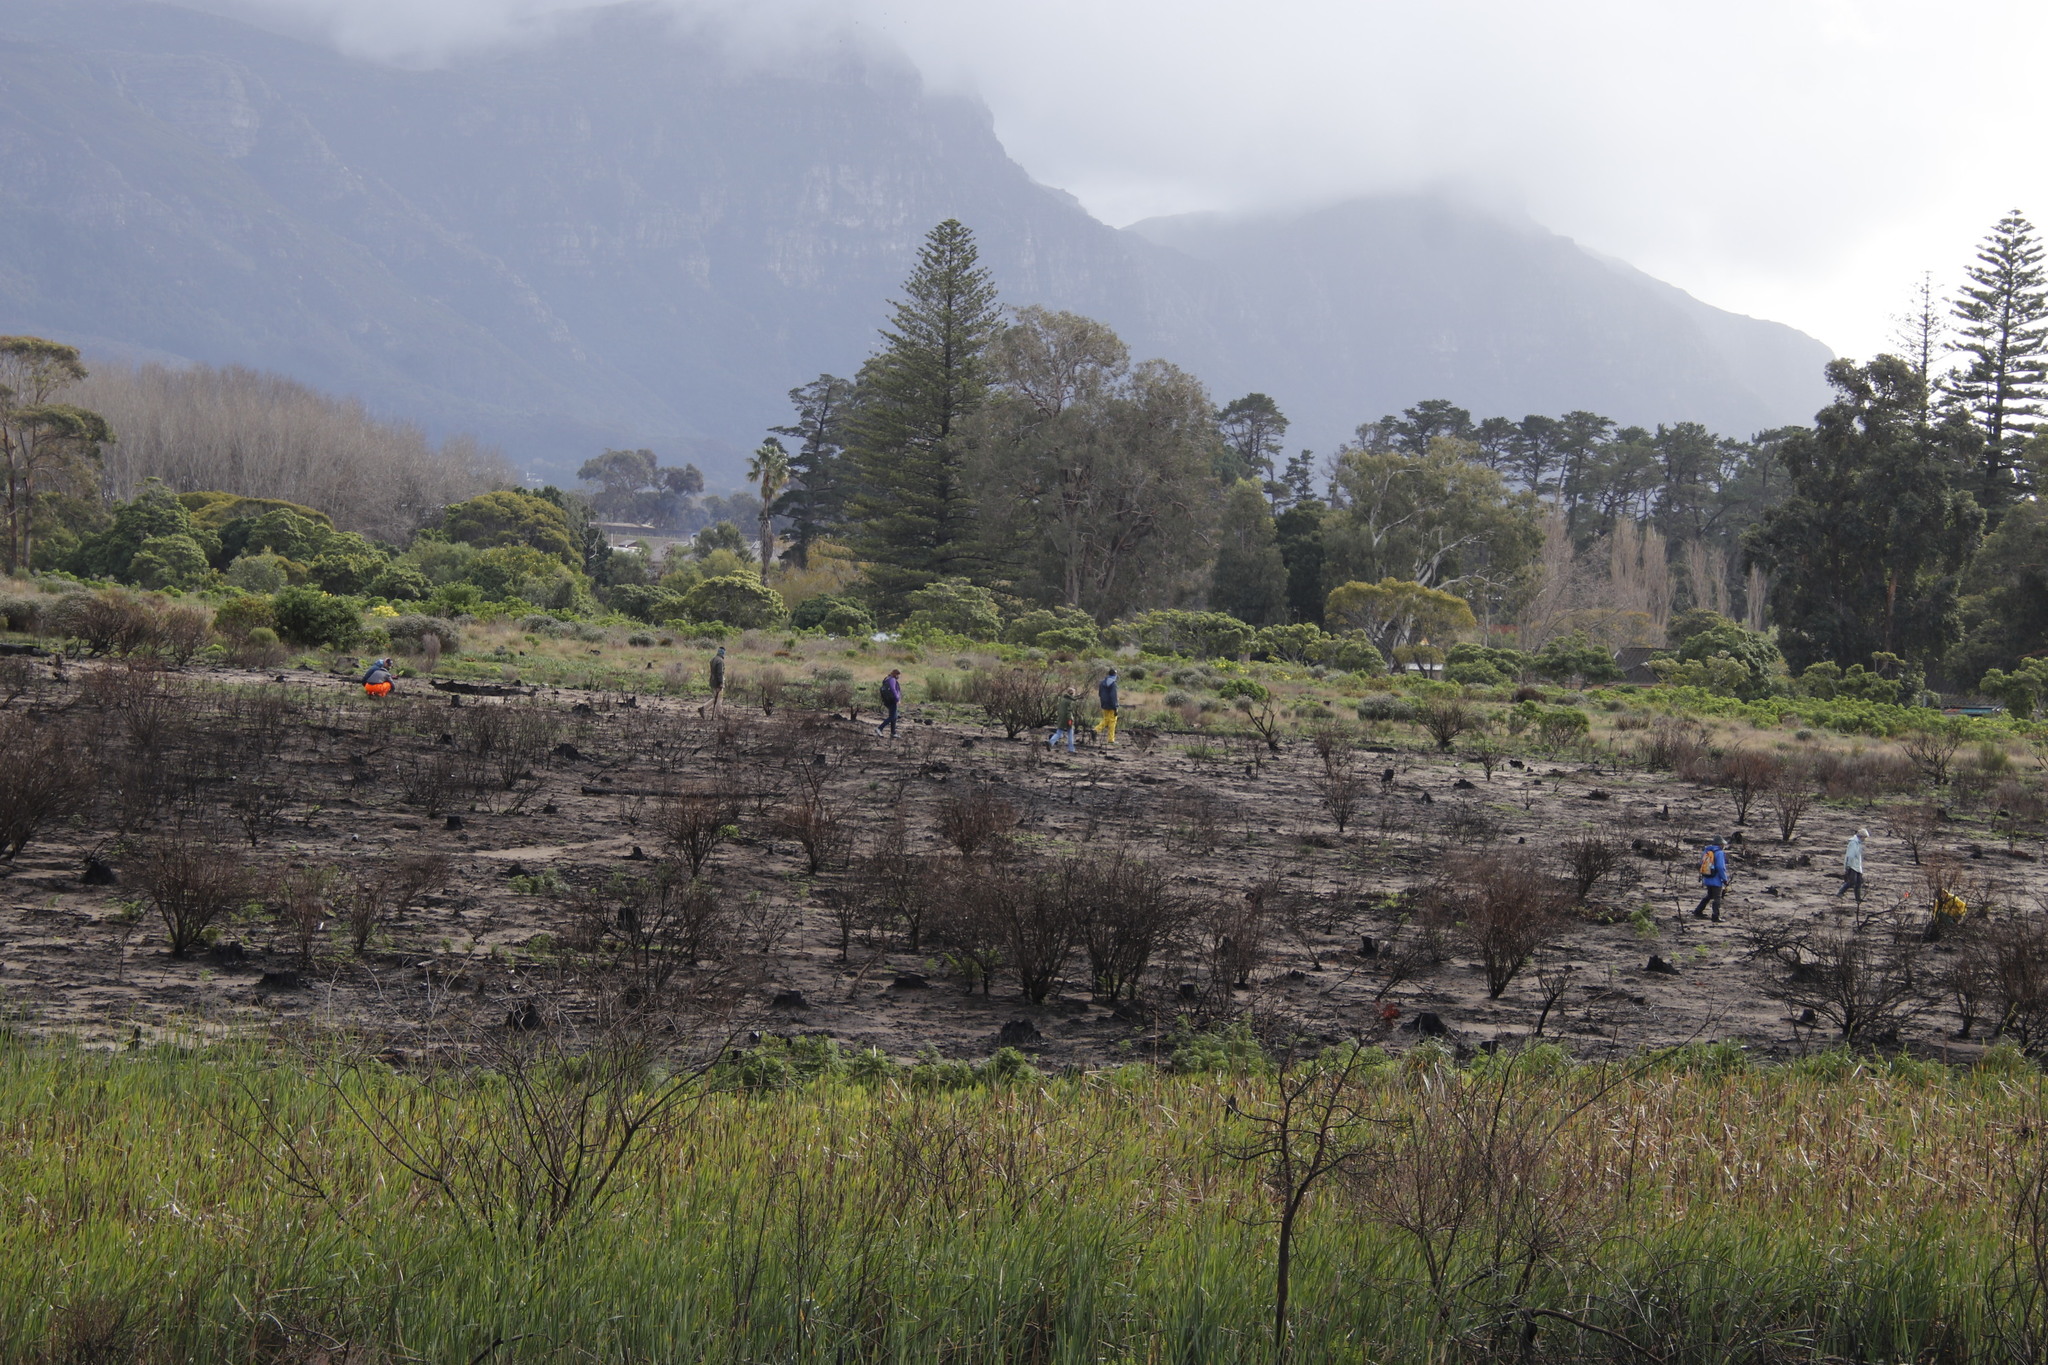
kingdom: Plantae
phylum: Tracheophyta
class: Magnoliopsida
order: Asterales
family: Asteraceae
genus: Osteospermum
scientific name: Osteospermum moniliferum
